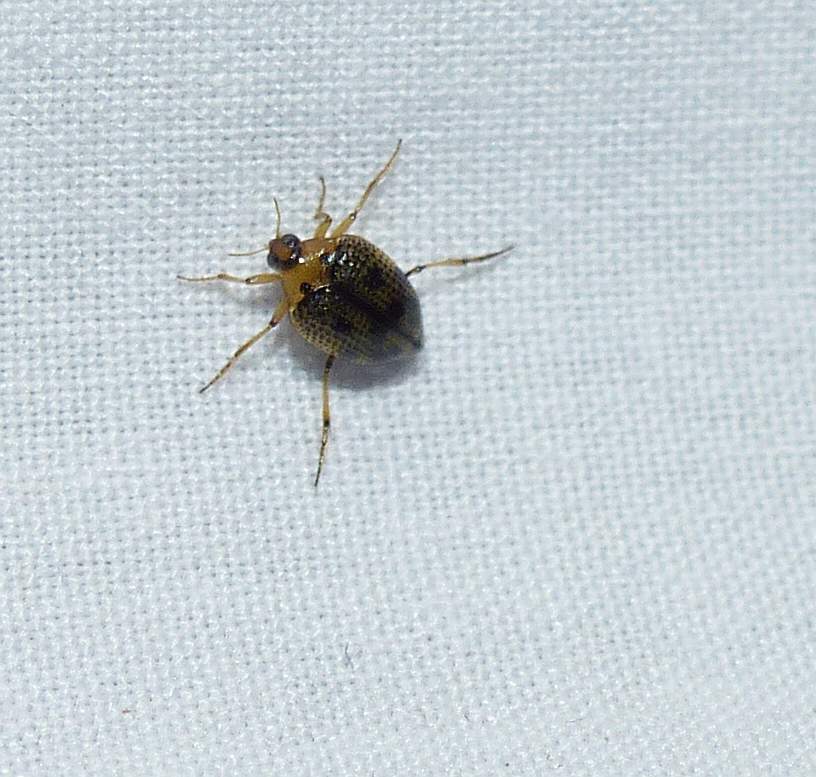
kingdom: Animalia
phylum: Arthropoda
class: Insecta
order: Coleoptera
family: Haliplidae
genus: Peltodytes
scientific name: Peltodytes edentulus
